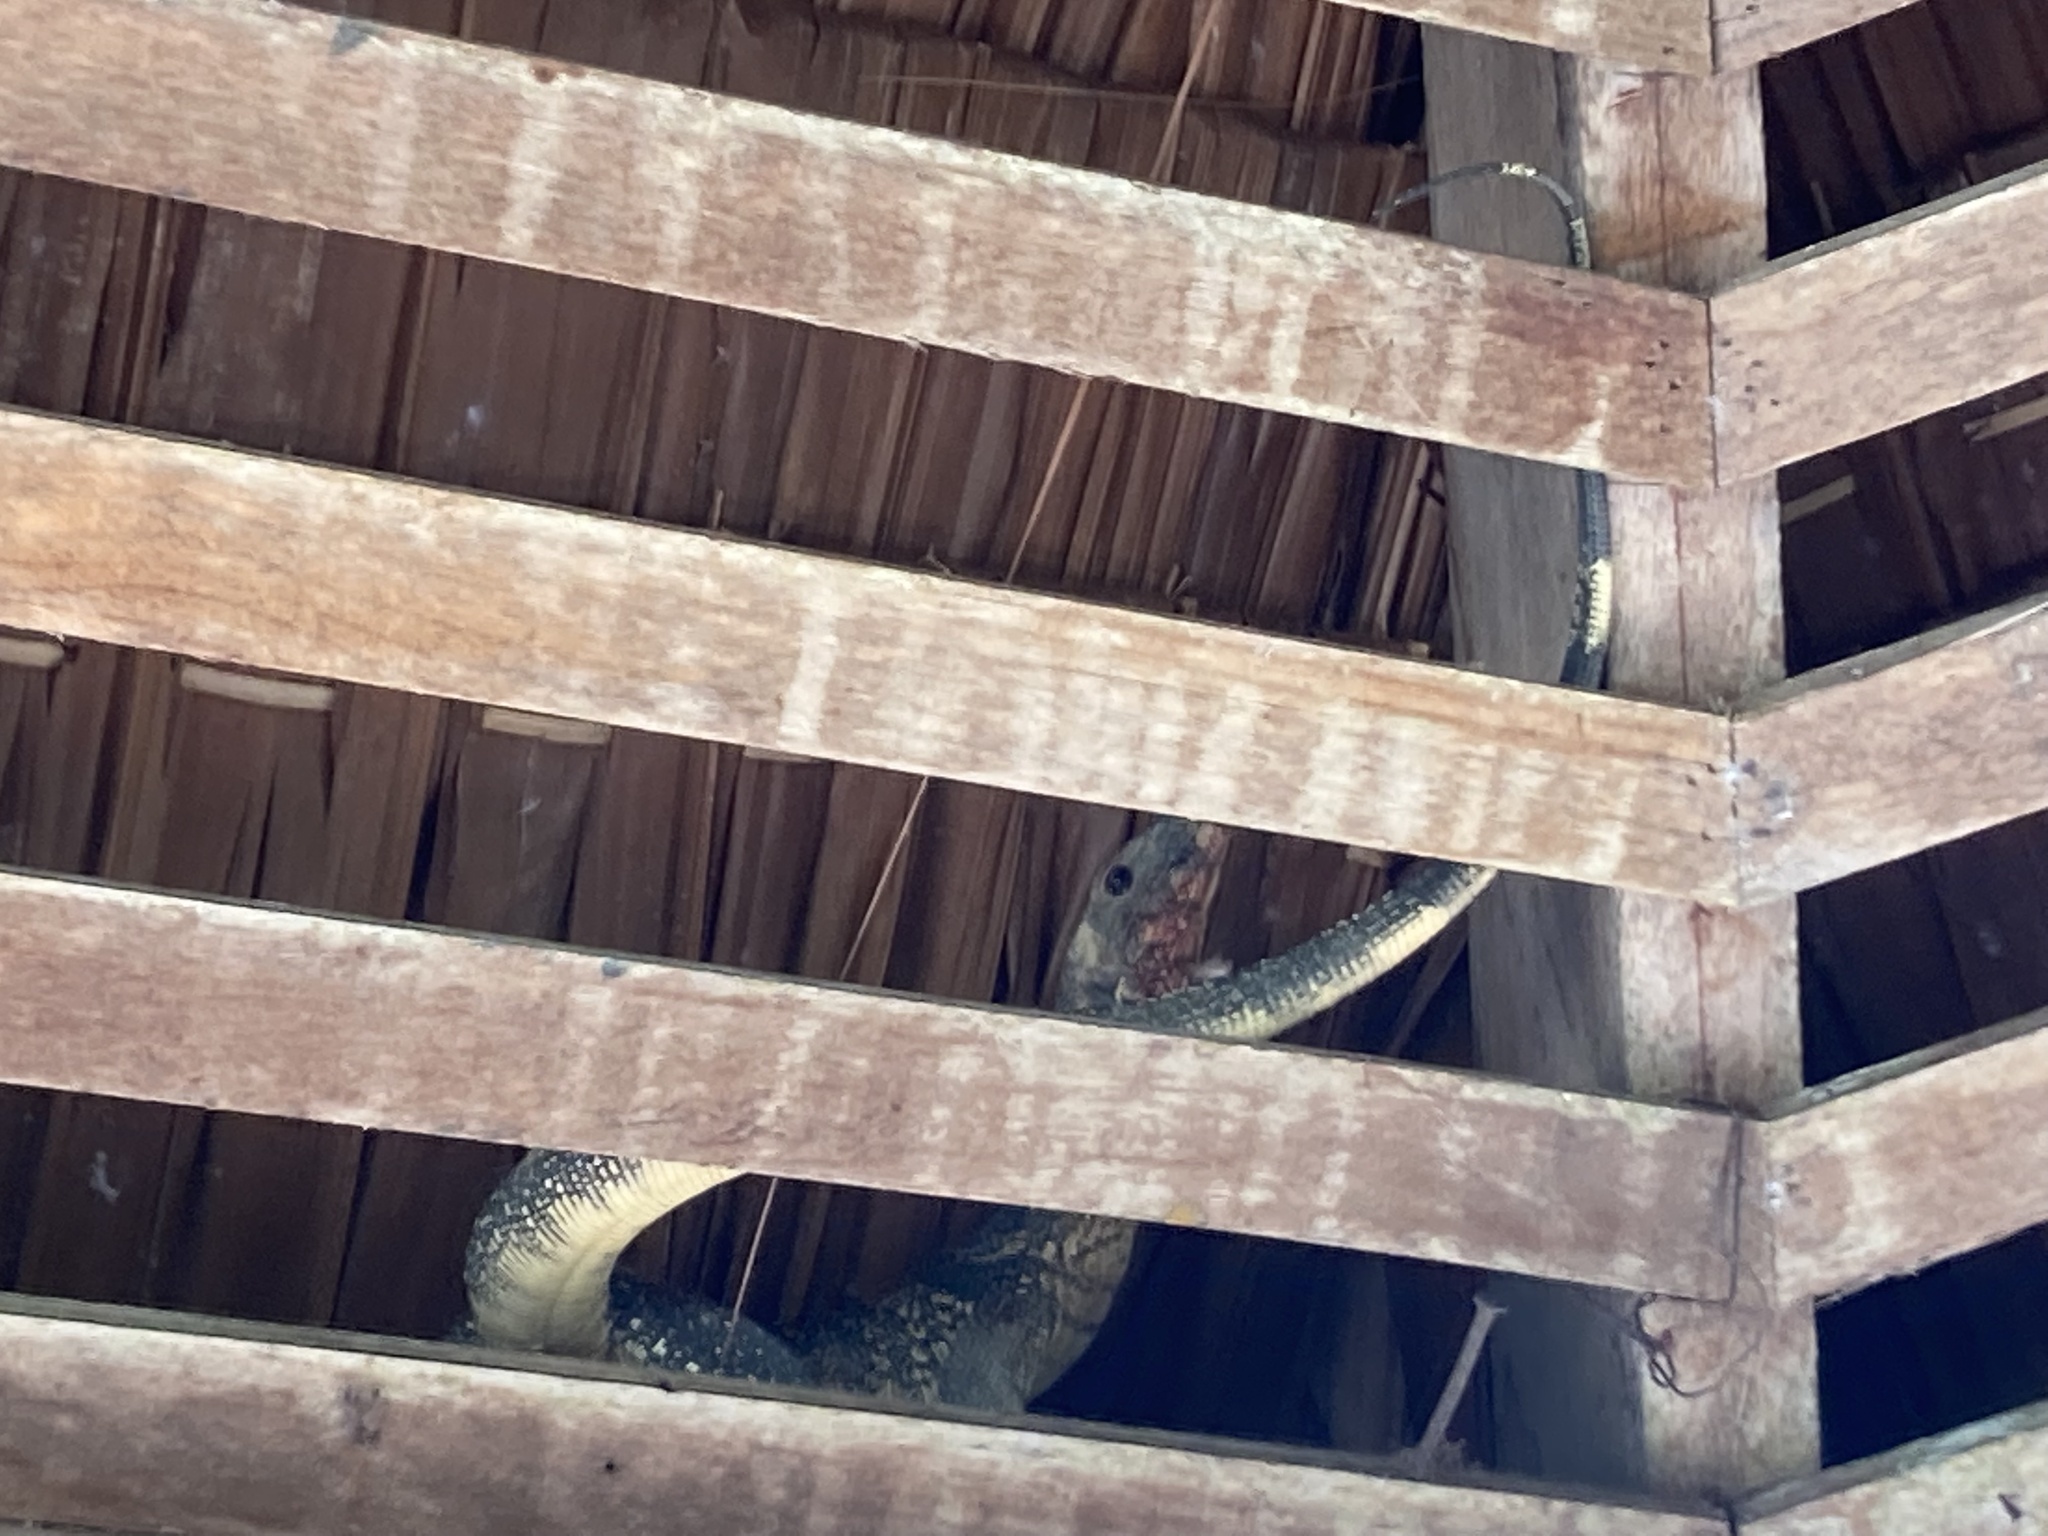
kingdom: Animalia
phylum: Chordata
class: Squamata
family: Varanidae
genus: Varanus
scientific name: Varanus salvator
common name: Common water monitor
